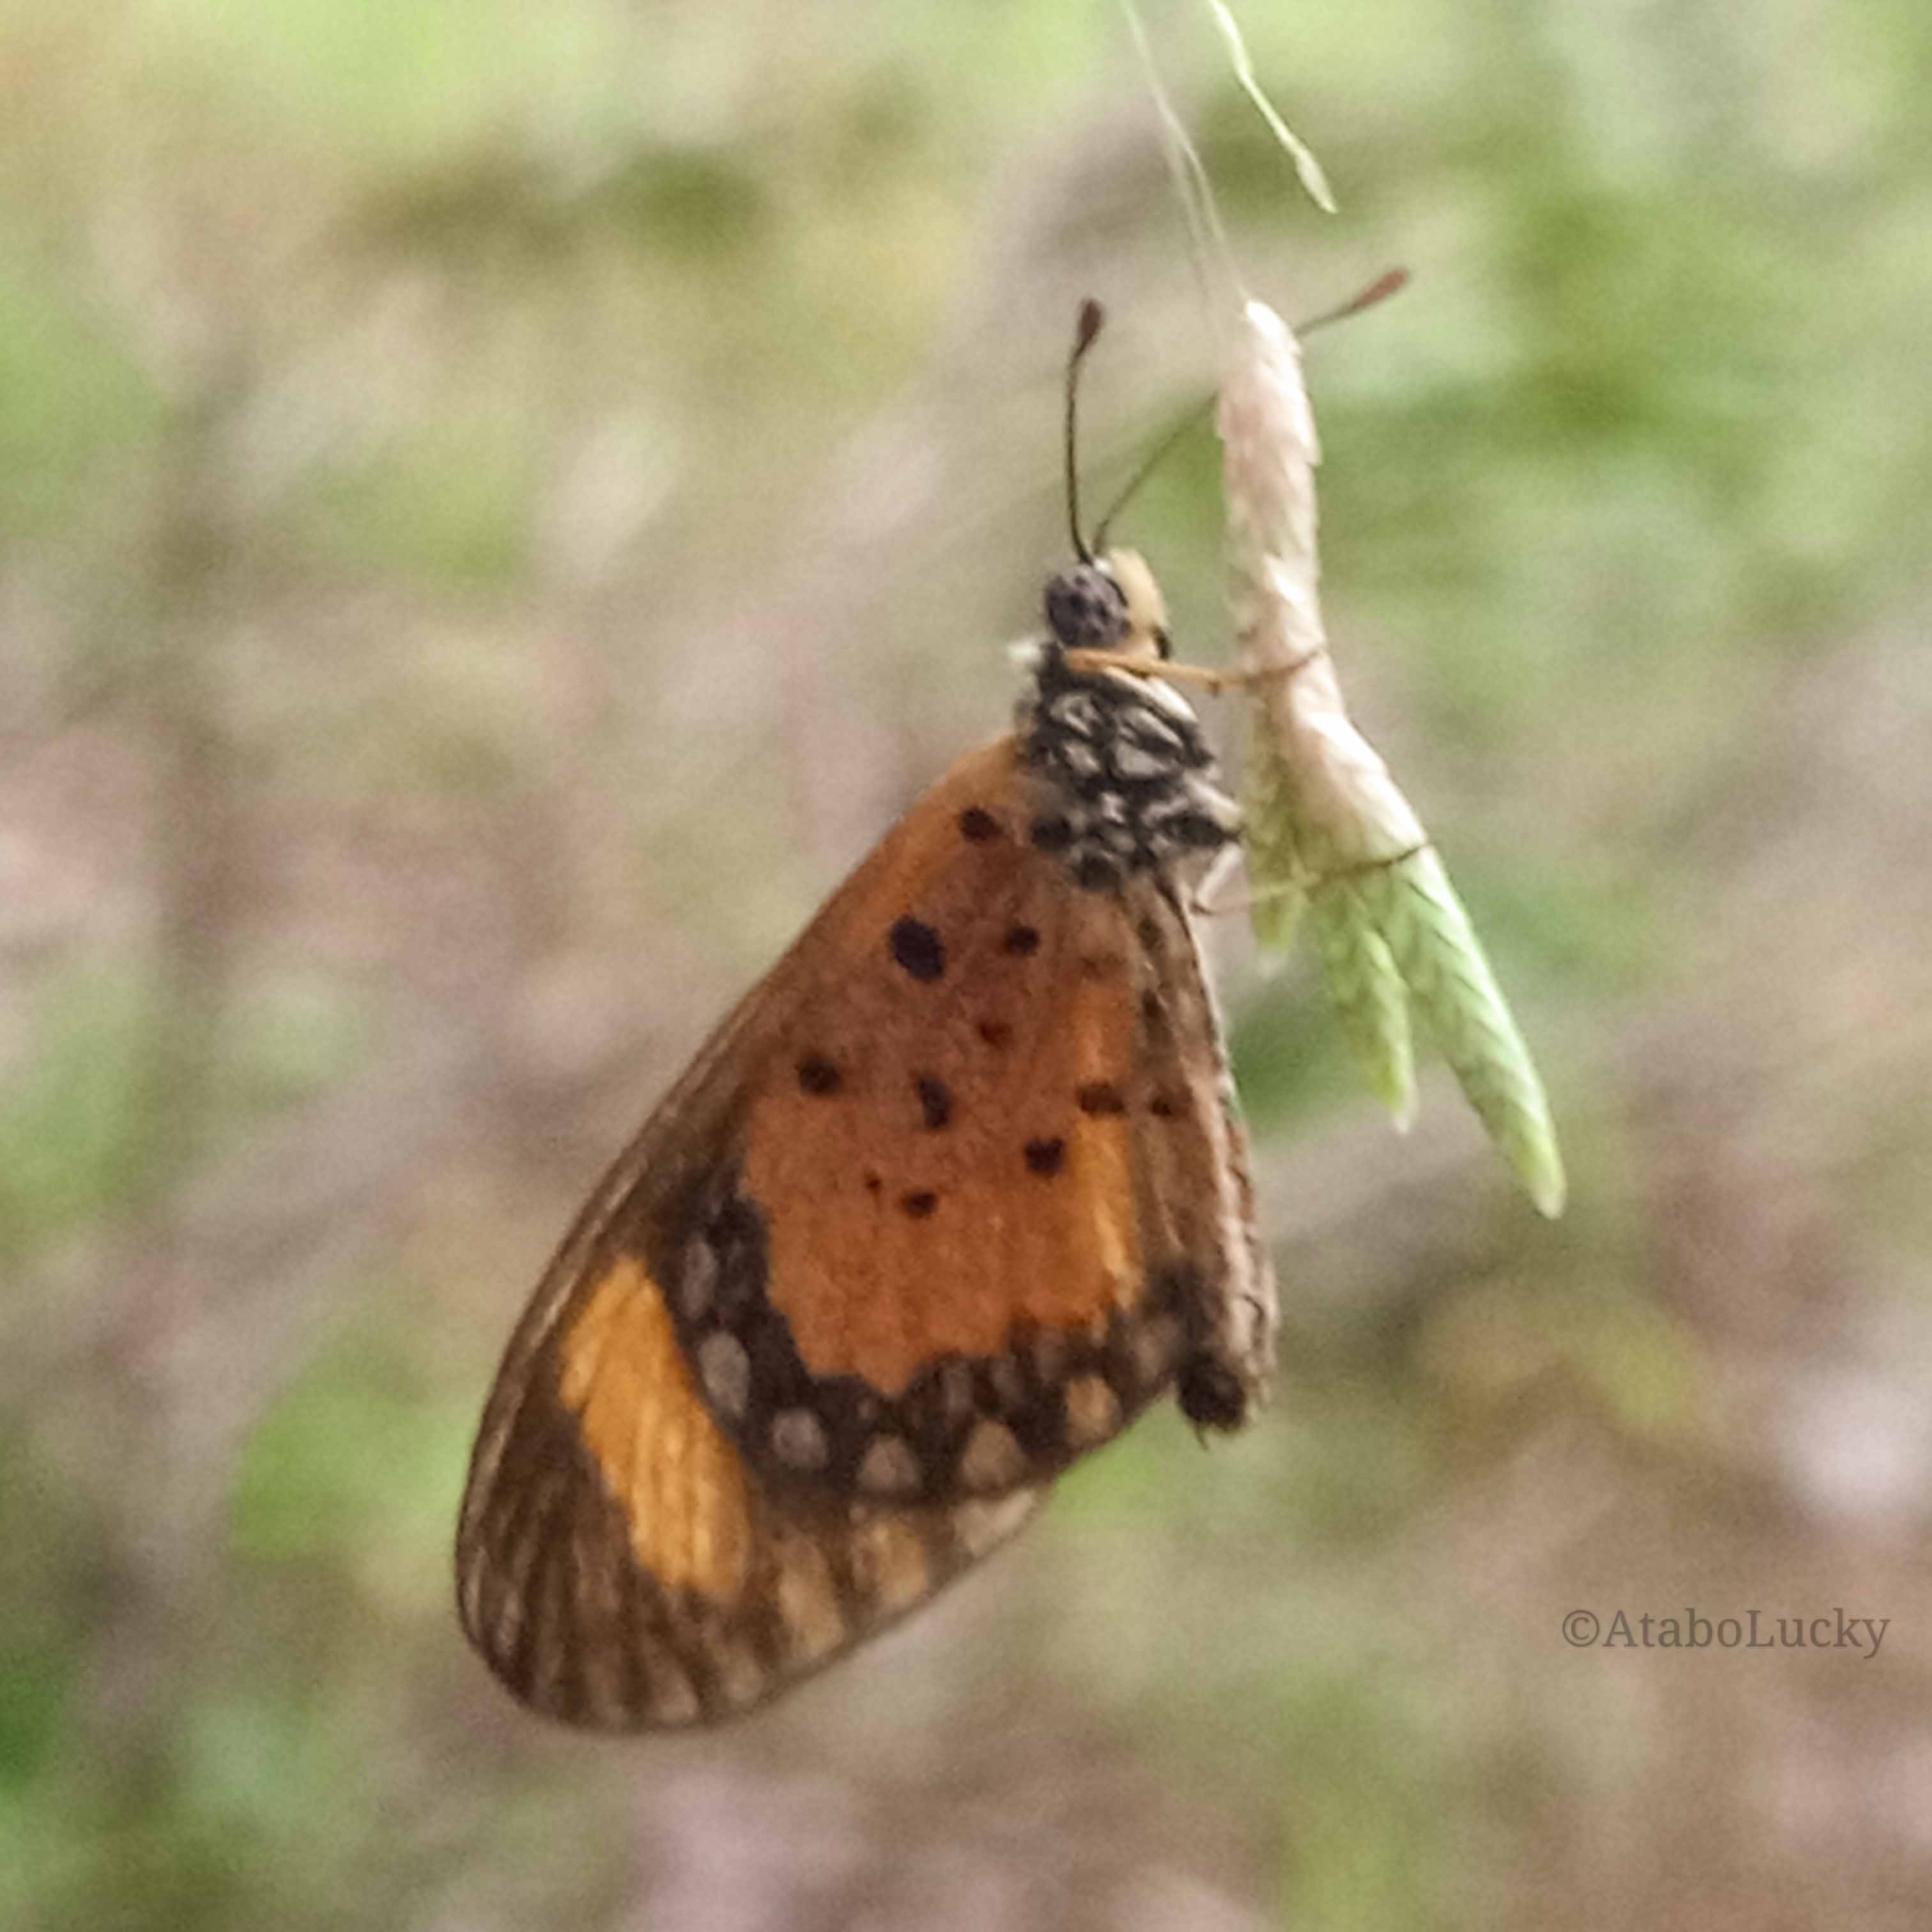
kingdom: Animalia
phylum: Arthropoda
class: Insecta
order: Lepidoptera
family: Nymphalidae
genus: Acraea
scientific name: Acraea Telchinia serena
